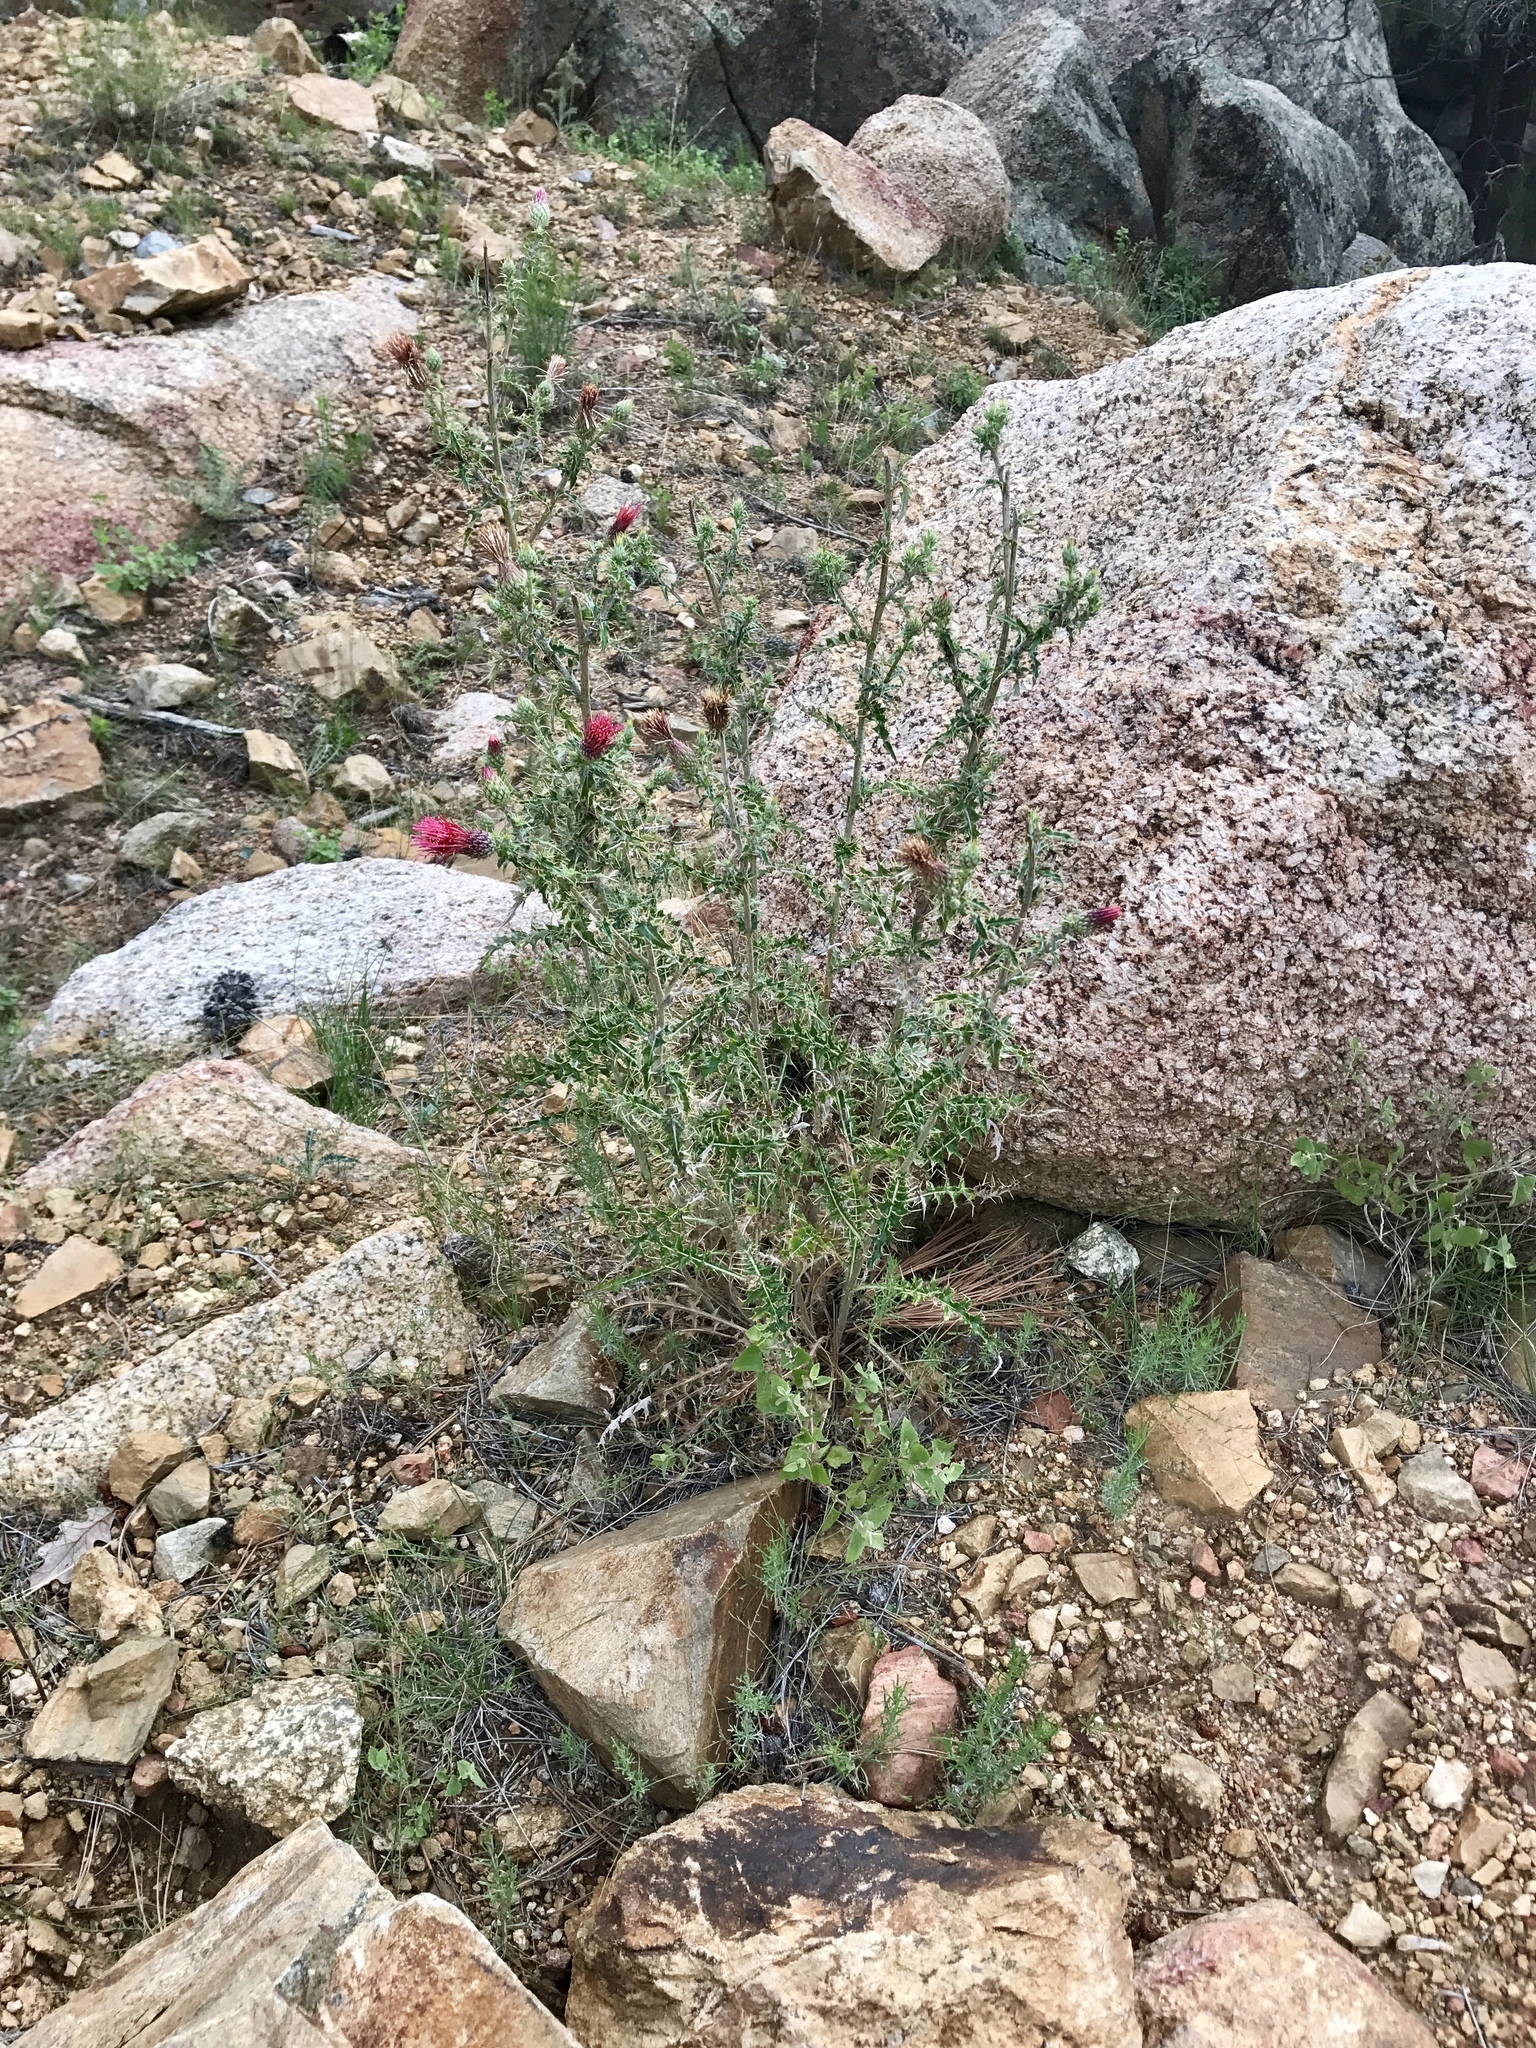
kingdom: Plantae
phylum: Tracheophyta
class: Magnoliopsida
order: Asterales
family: Asteraceae
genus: Cirsium
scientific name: Cirsium arizonicum
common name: Arizona thistle
